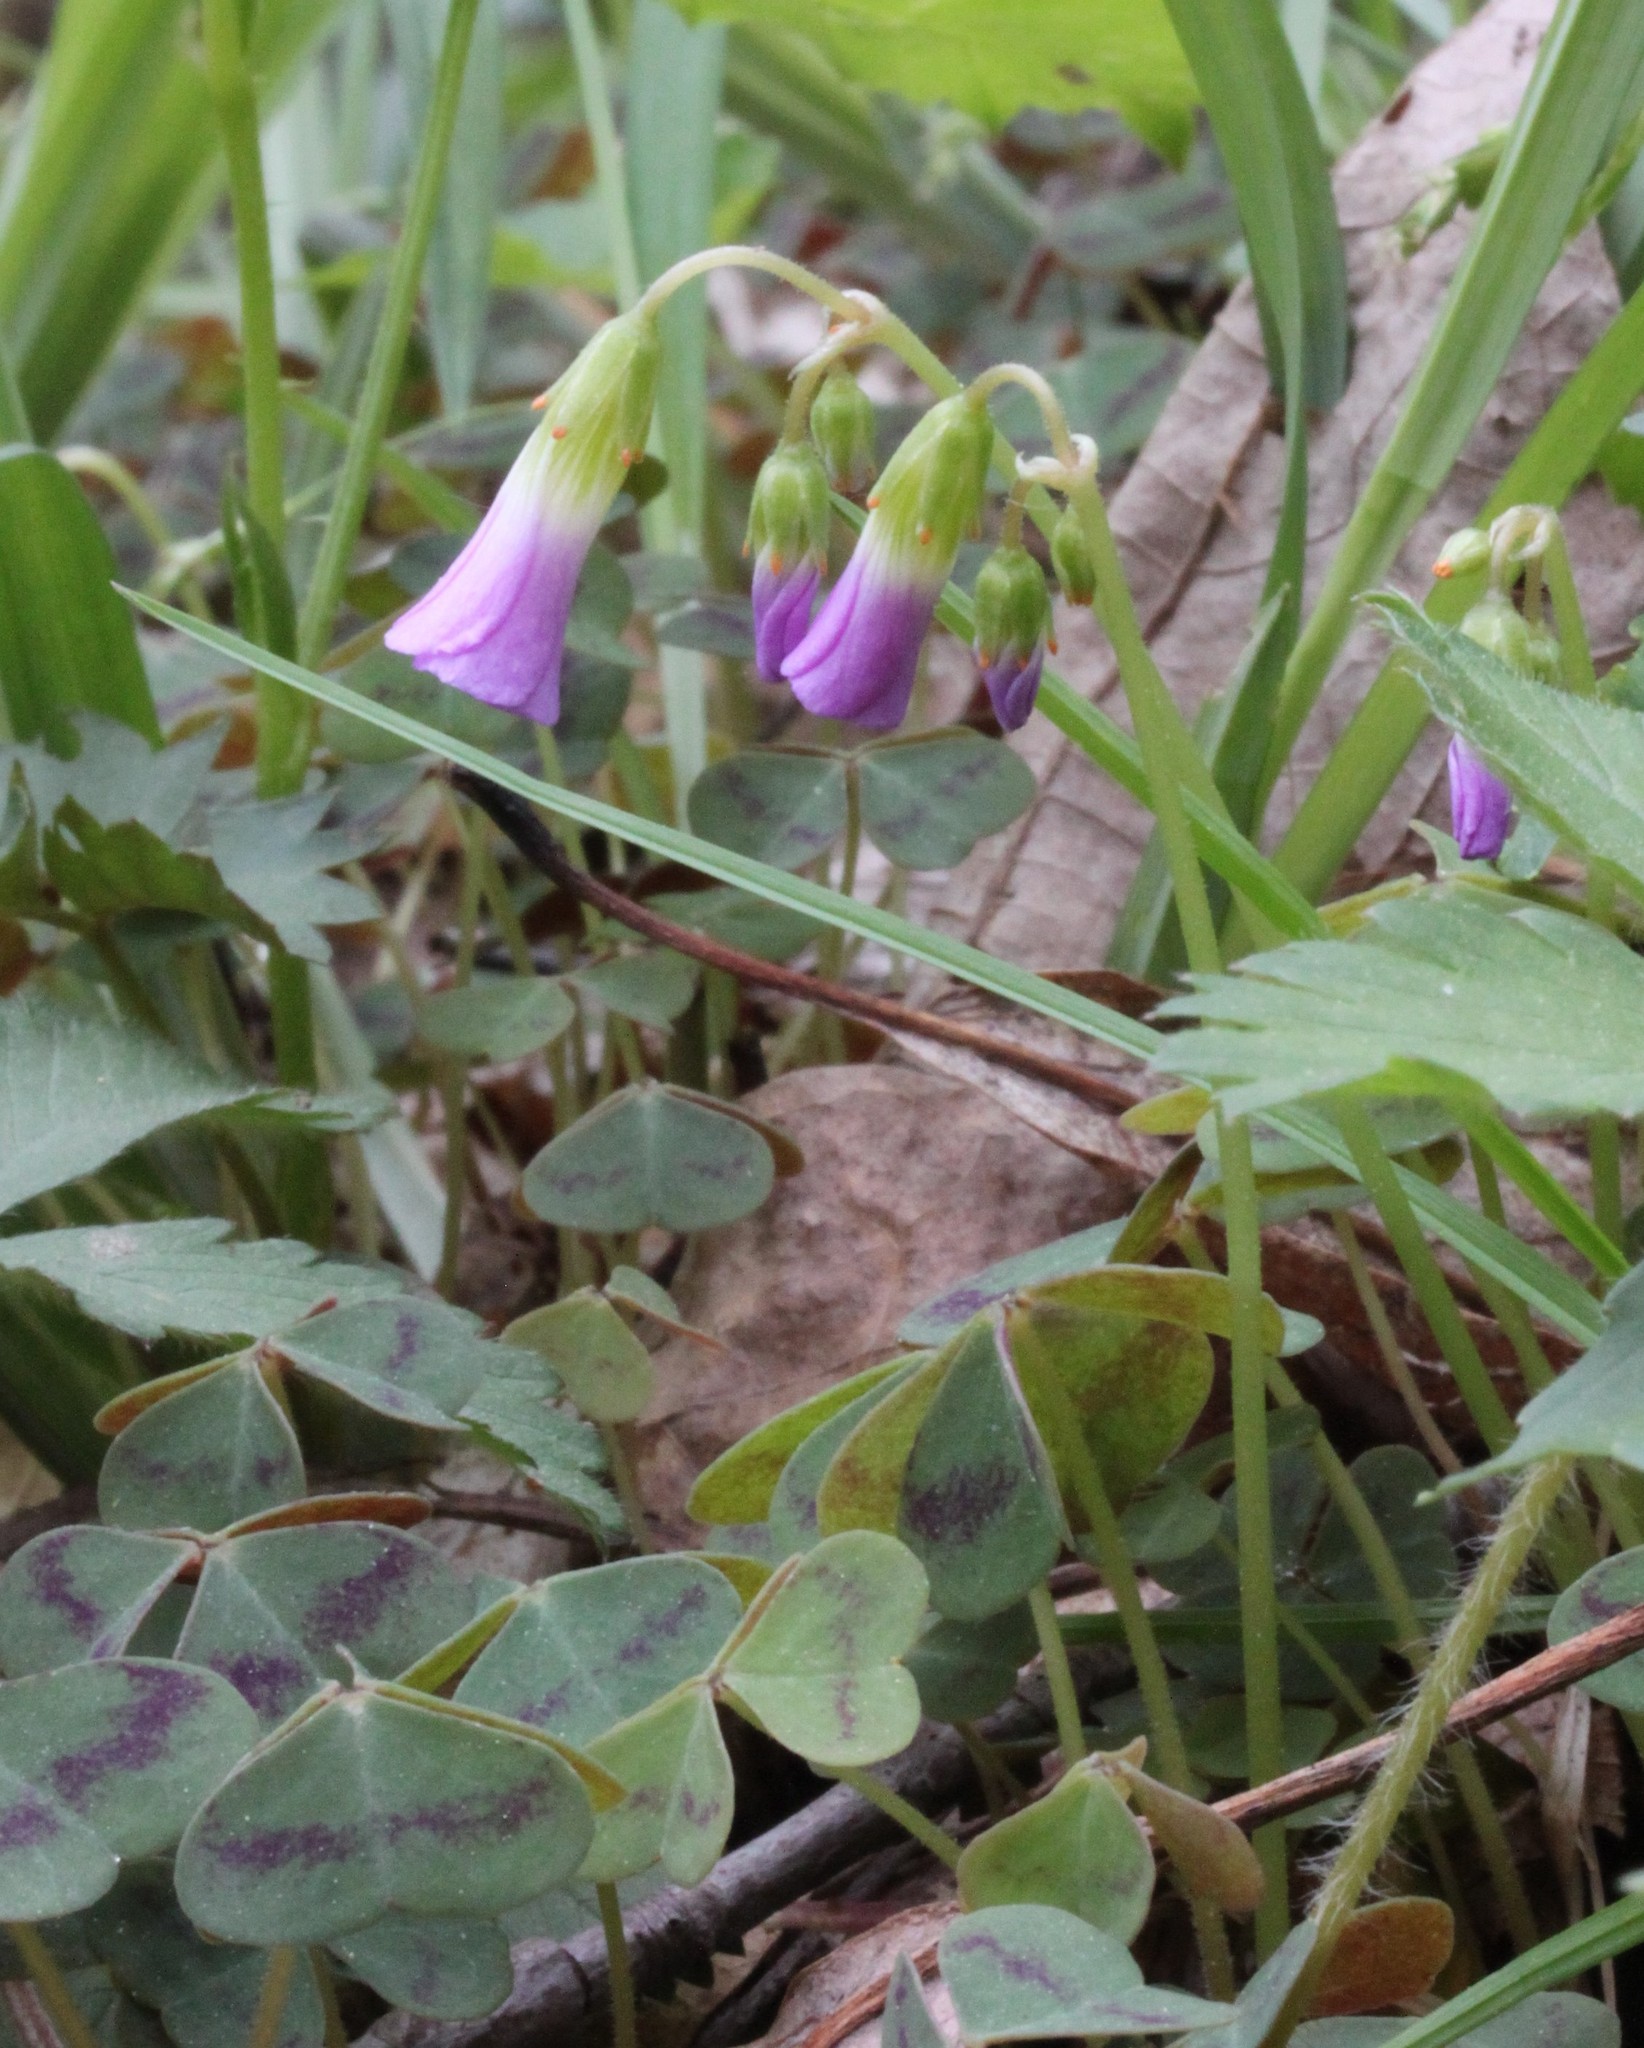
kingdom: Plantae
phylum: Tracheophyta
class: Magnoliopsida
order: Oxalidales
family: Oxalidaceae
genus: Oxalis
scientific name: Oxalis violacea
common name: Violet wood-sorrel
